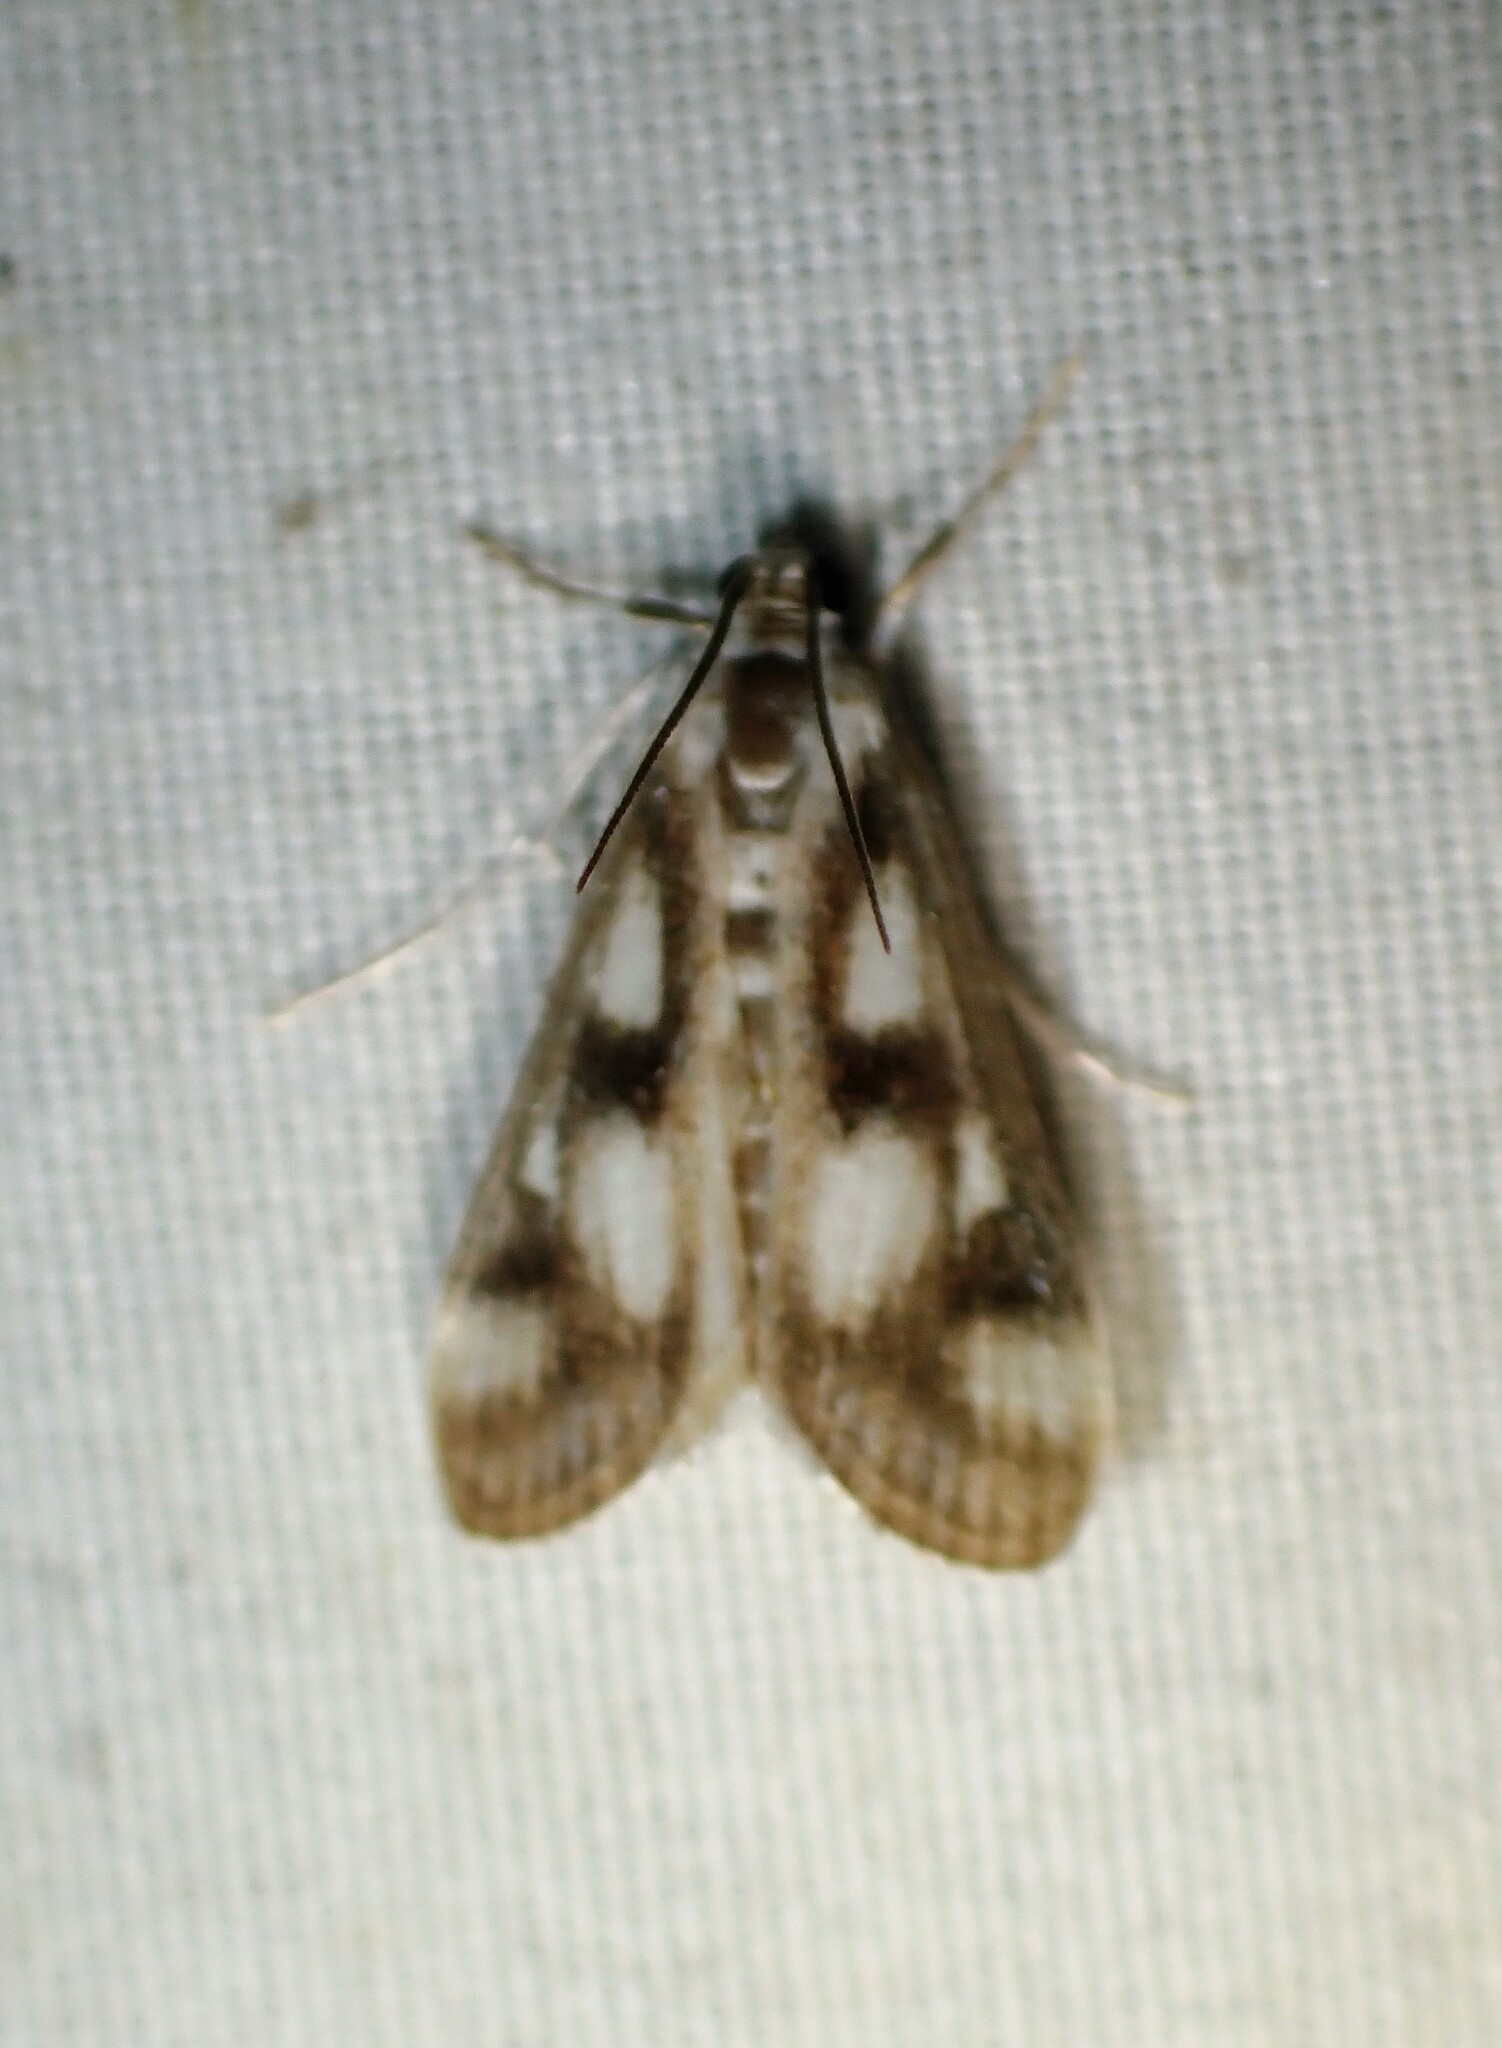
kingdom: Animalia
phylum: Arthropoda
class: Insecta
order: Lepidoptera
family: Crambidae
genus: Parapoynx
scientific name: Parapoynx maculalis
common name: Polymorphic pondweed moth
